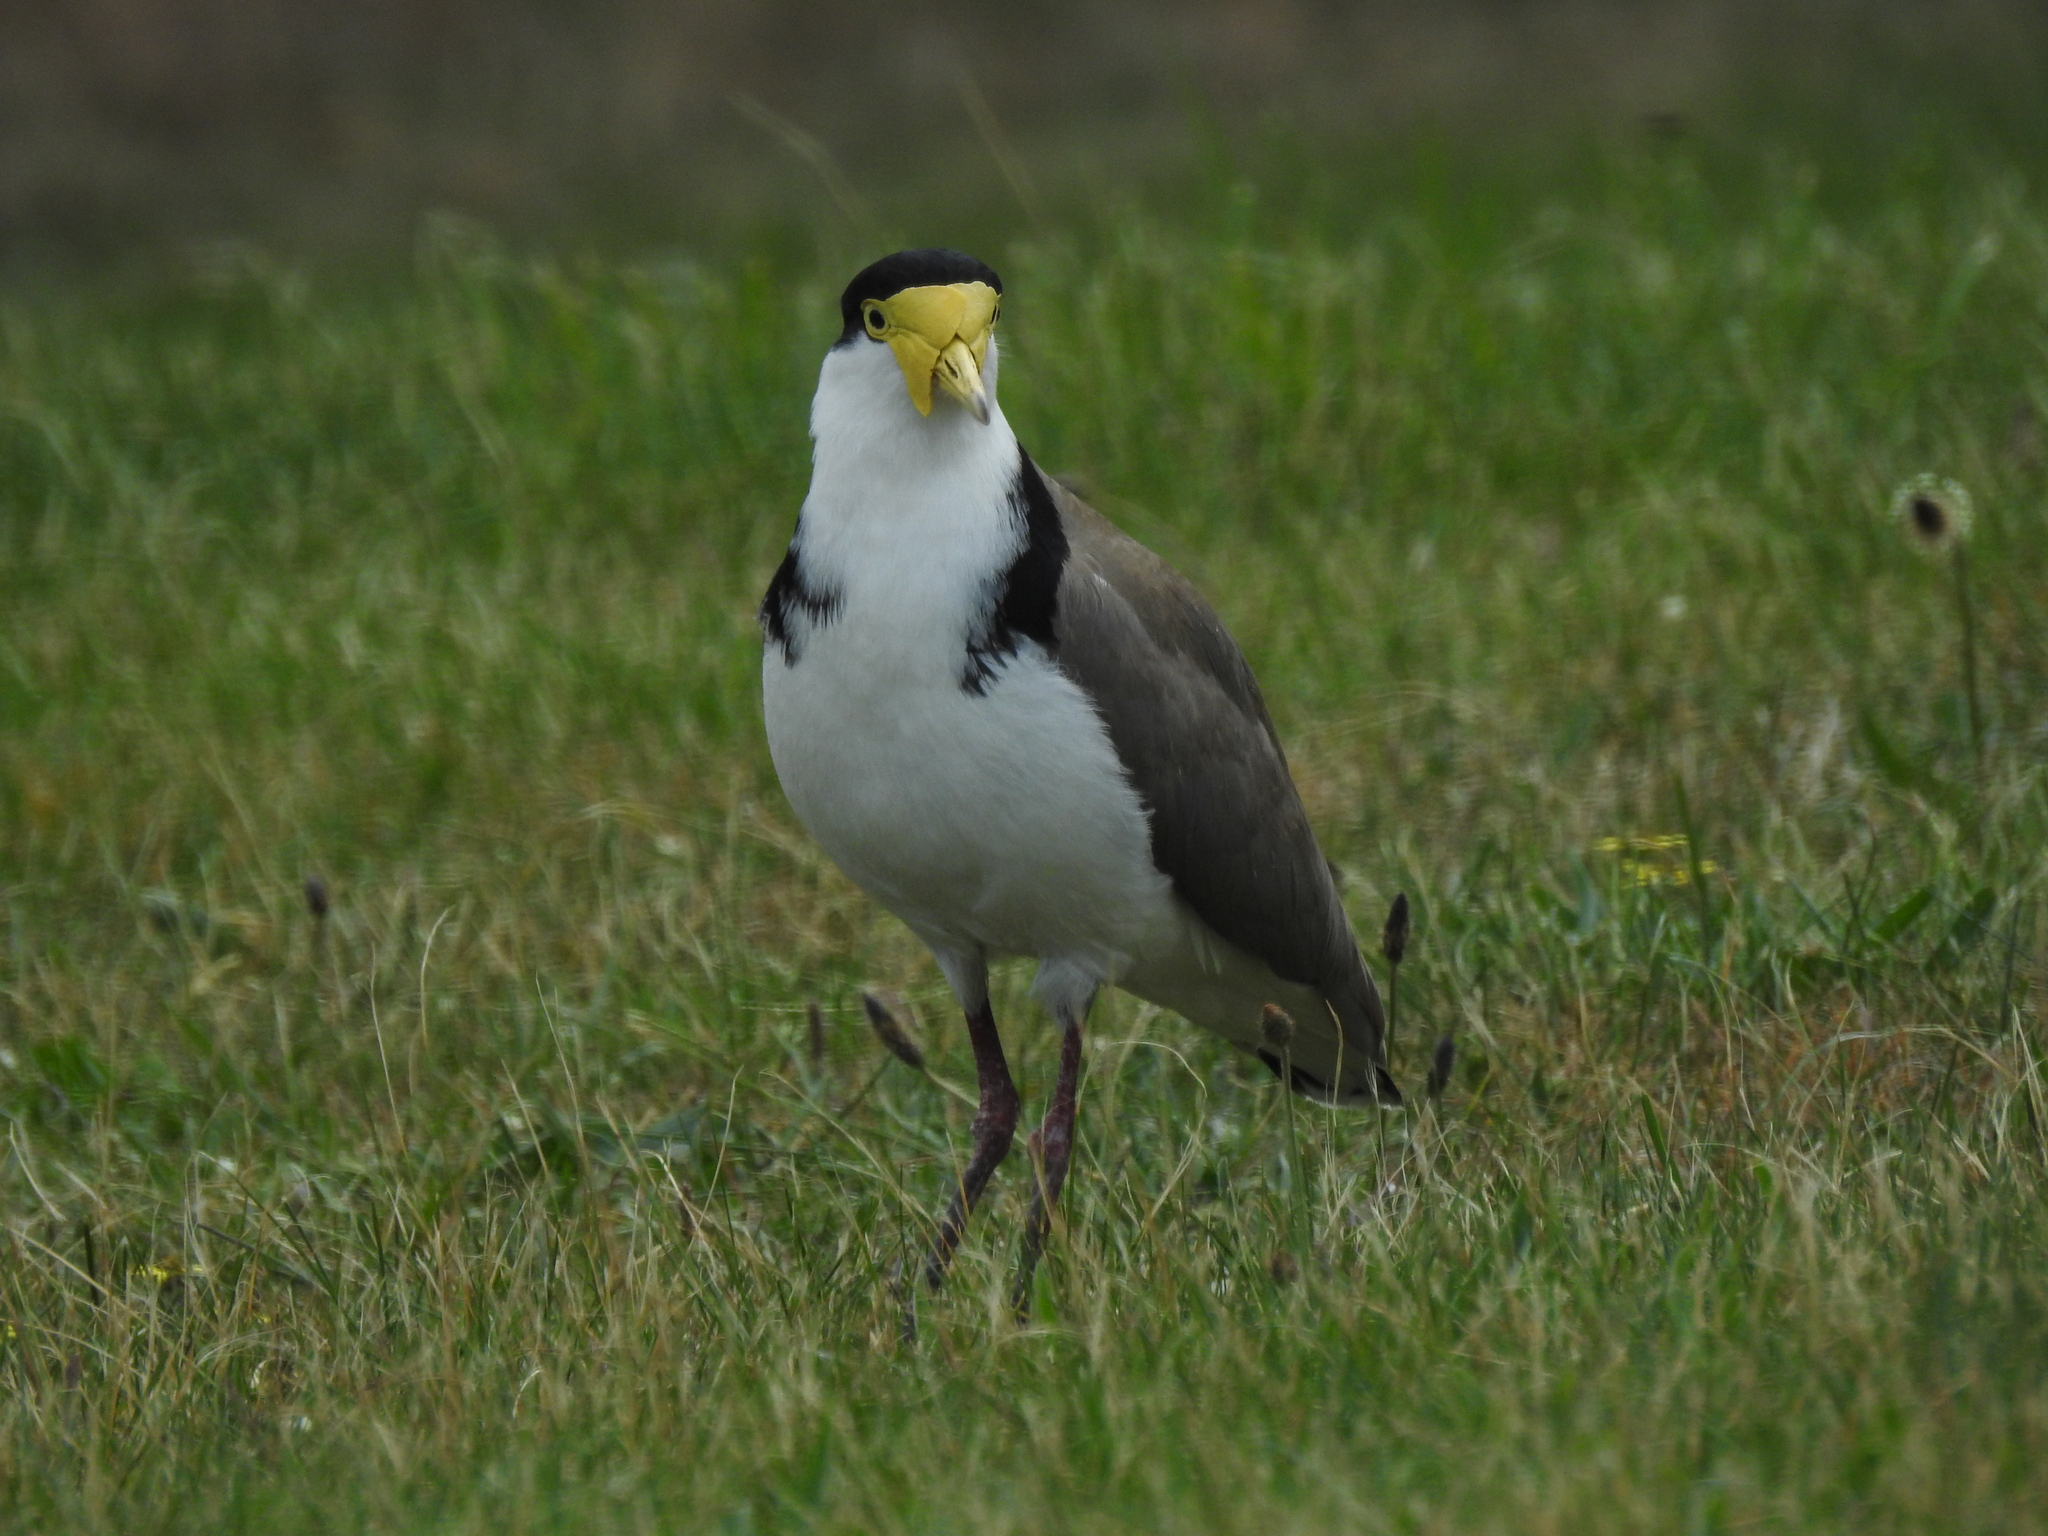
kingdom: Animalia
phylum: Chordata
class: Aves
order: Charadriiformes
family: Charadriidae
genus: Vanellus
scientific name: Vanellus miles
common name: Masked lapwing
